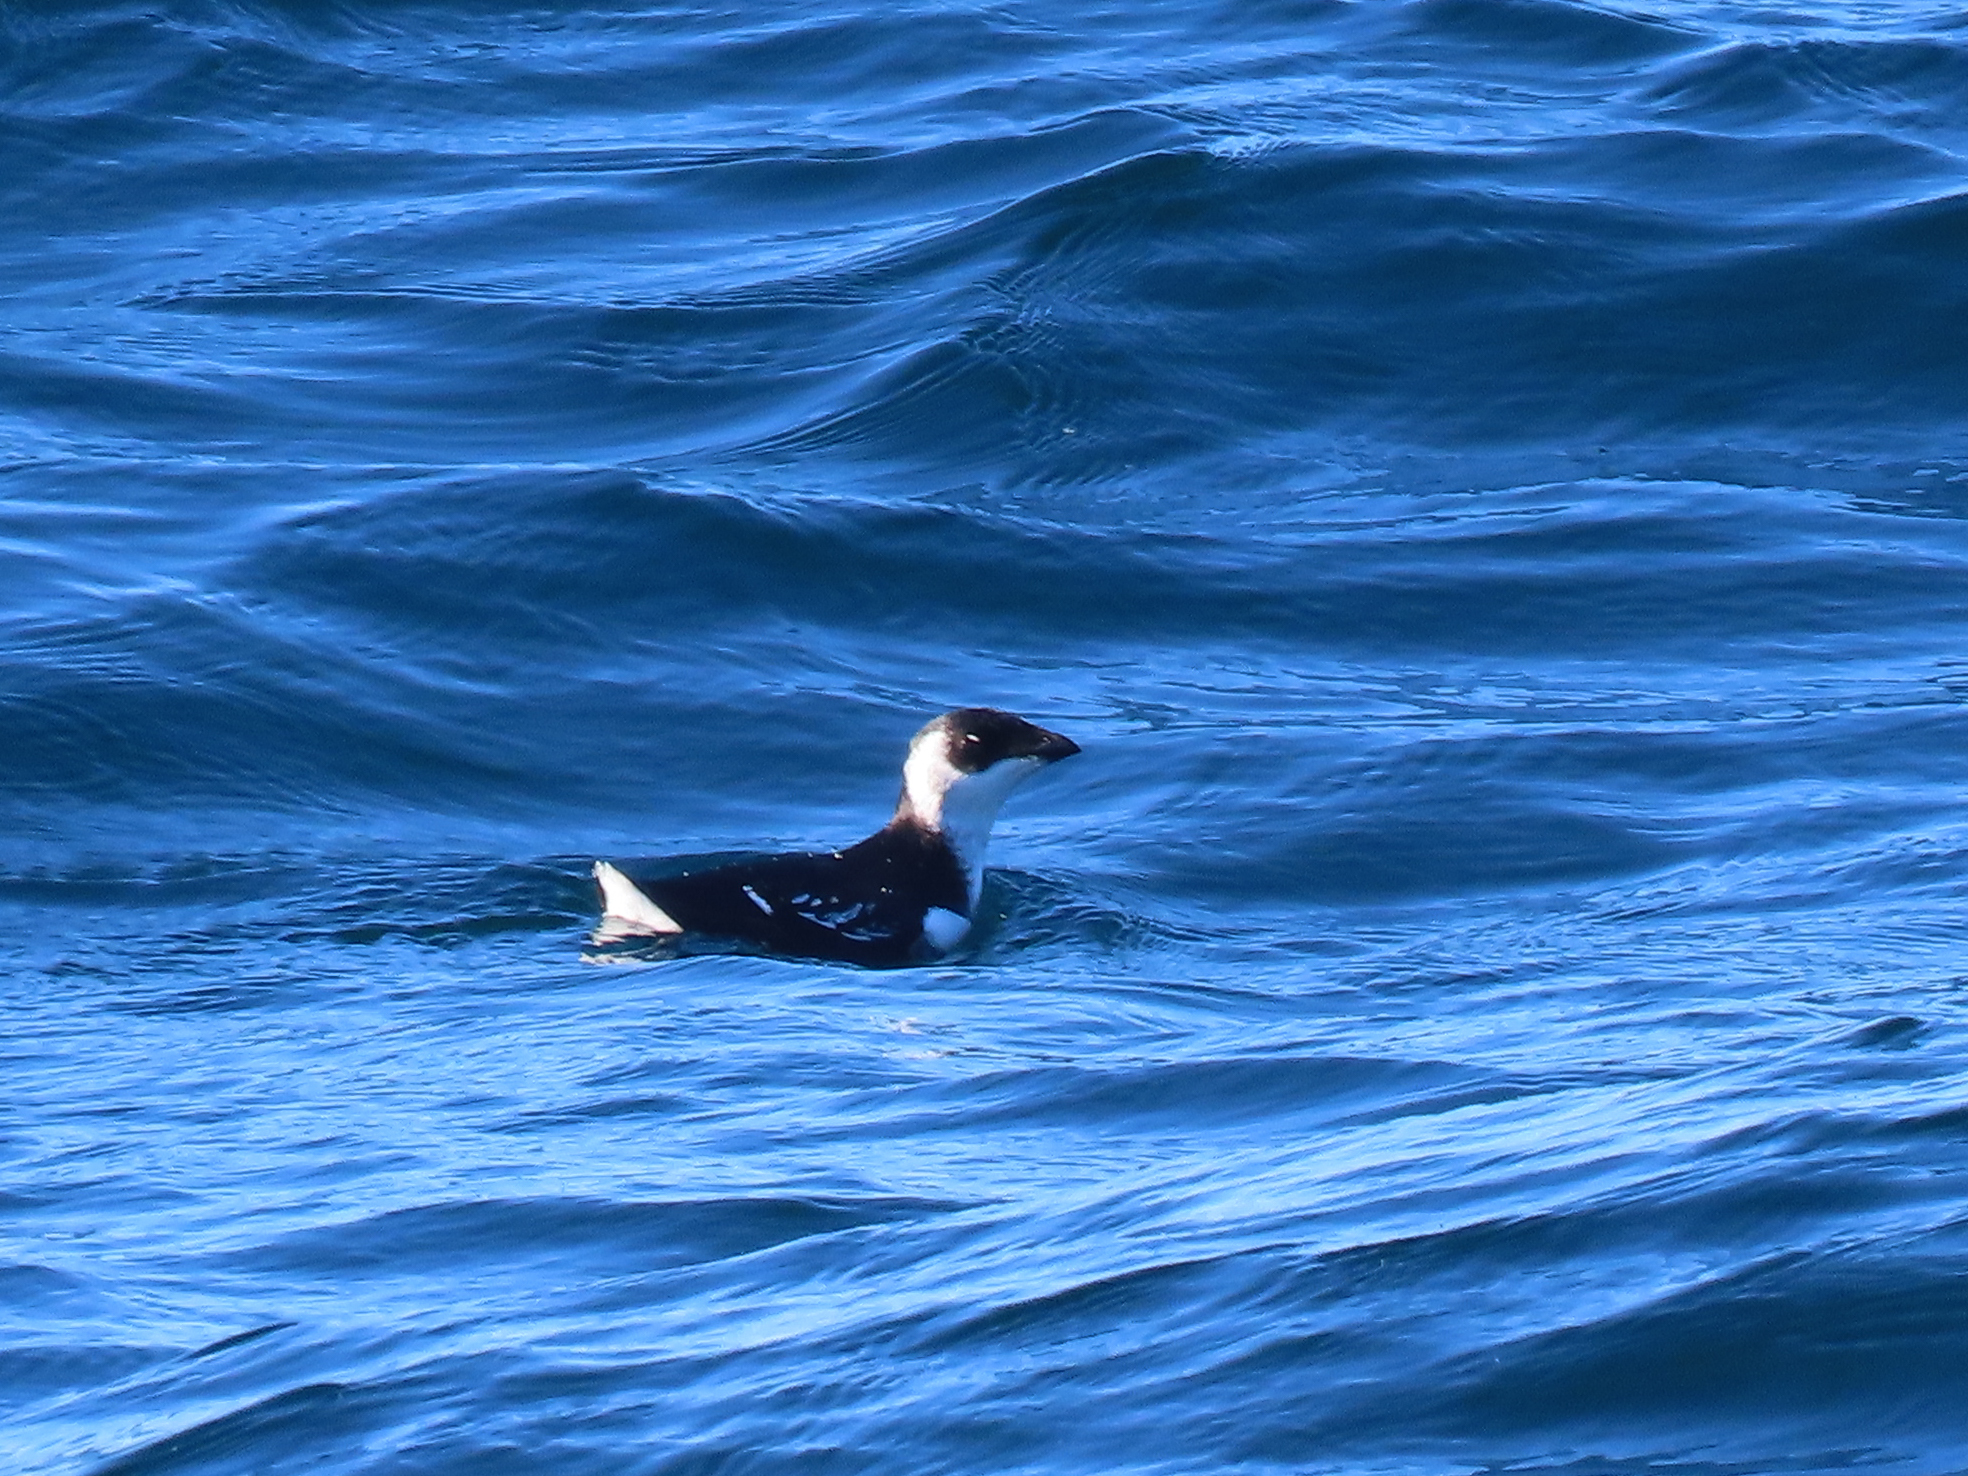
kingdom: Animalia
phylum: Chordata
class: Aves
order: Charadriiformes
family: Alcidae
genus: Alle
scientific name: Alle alle
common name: Little auk
